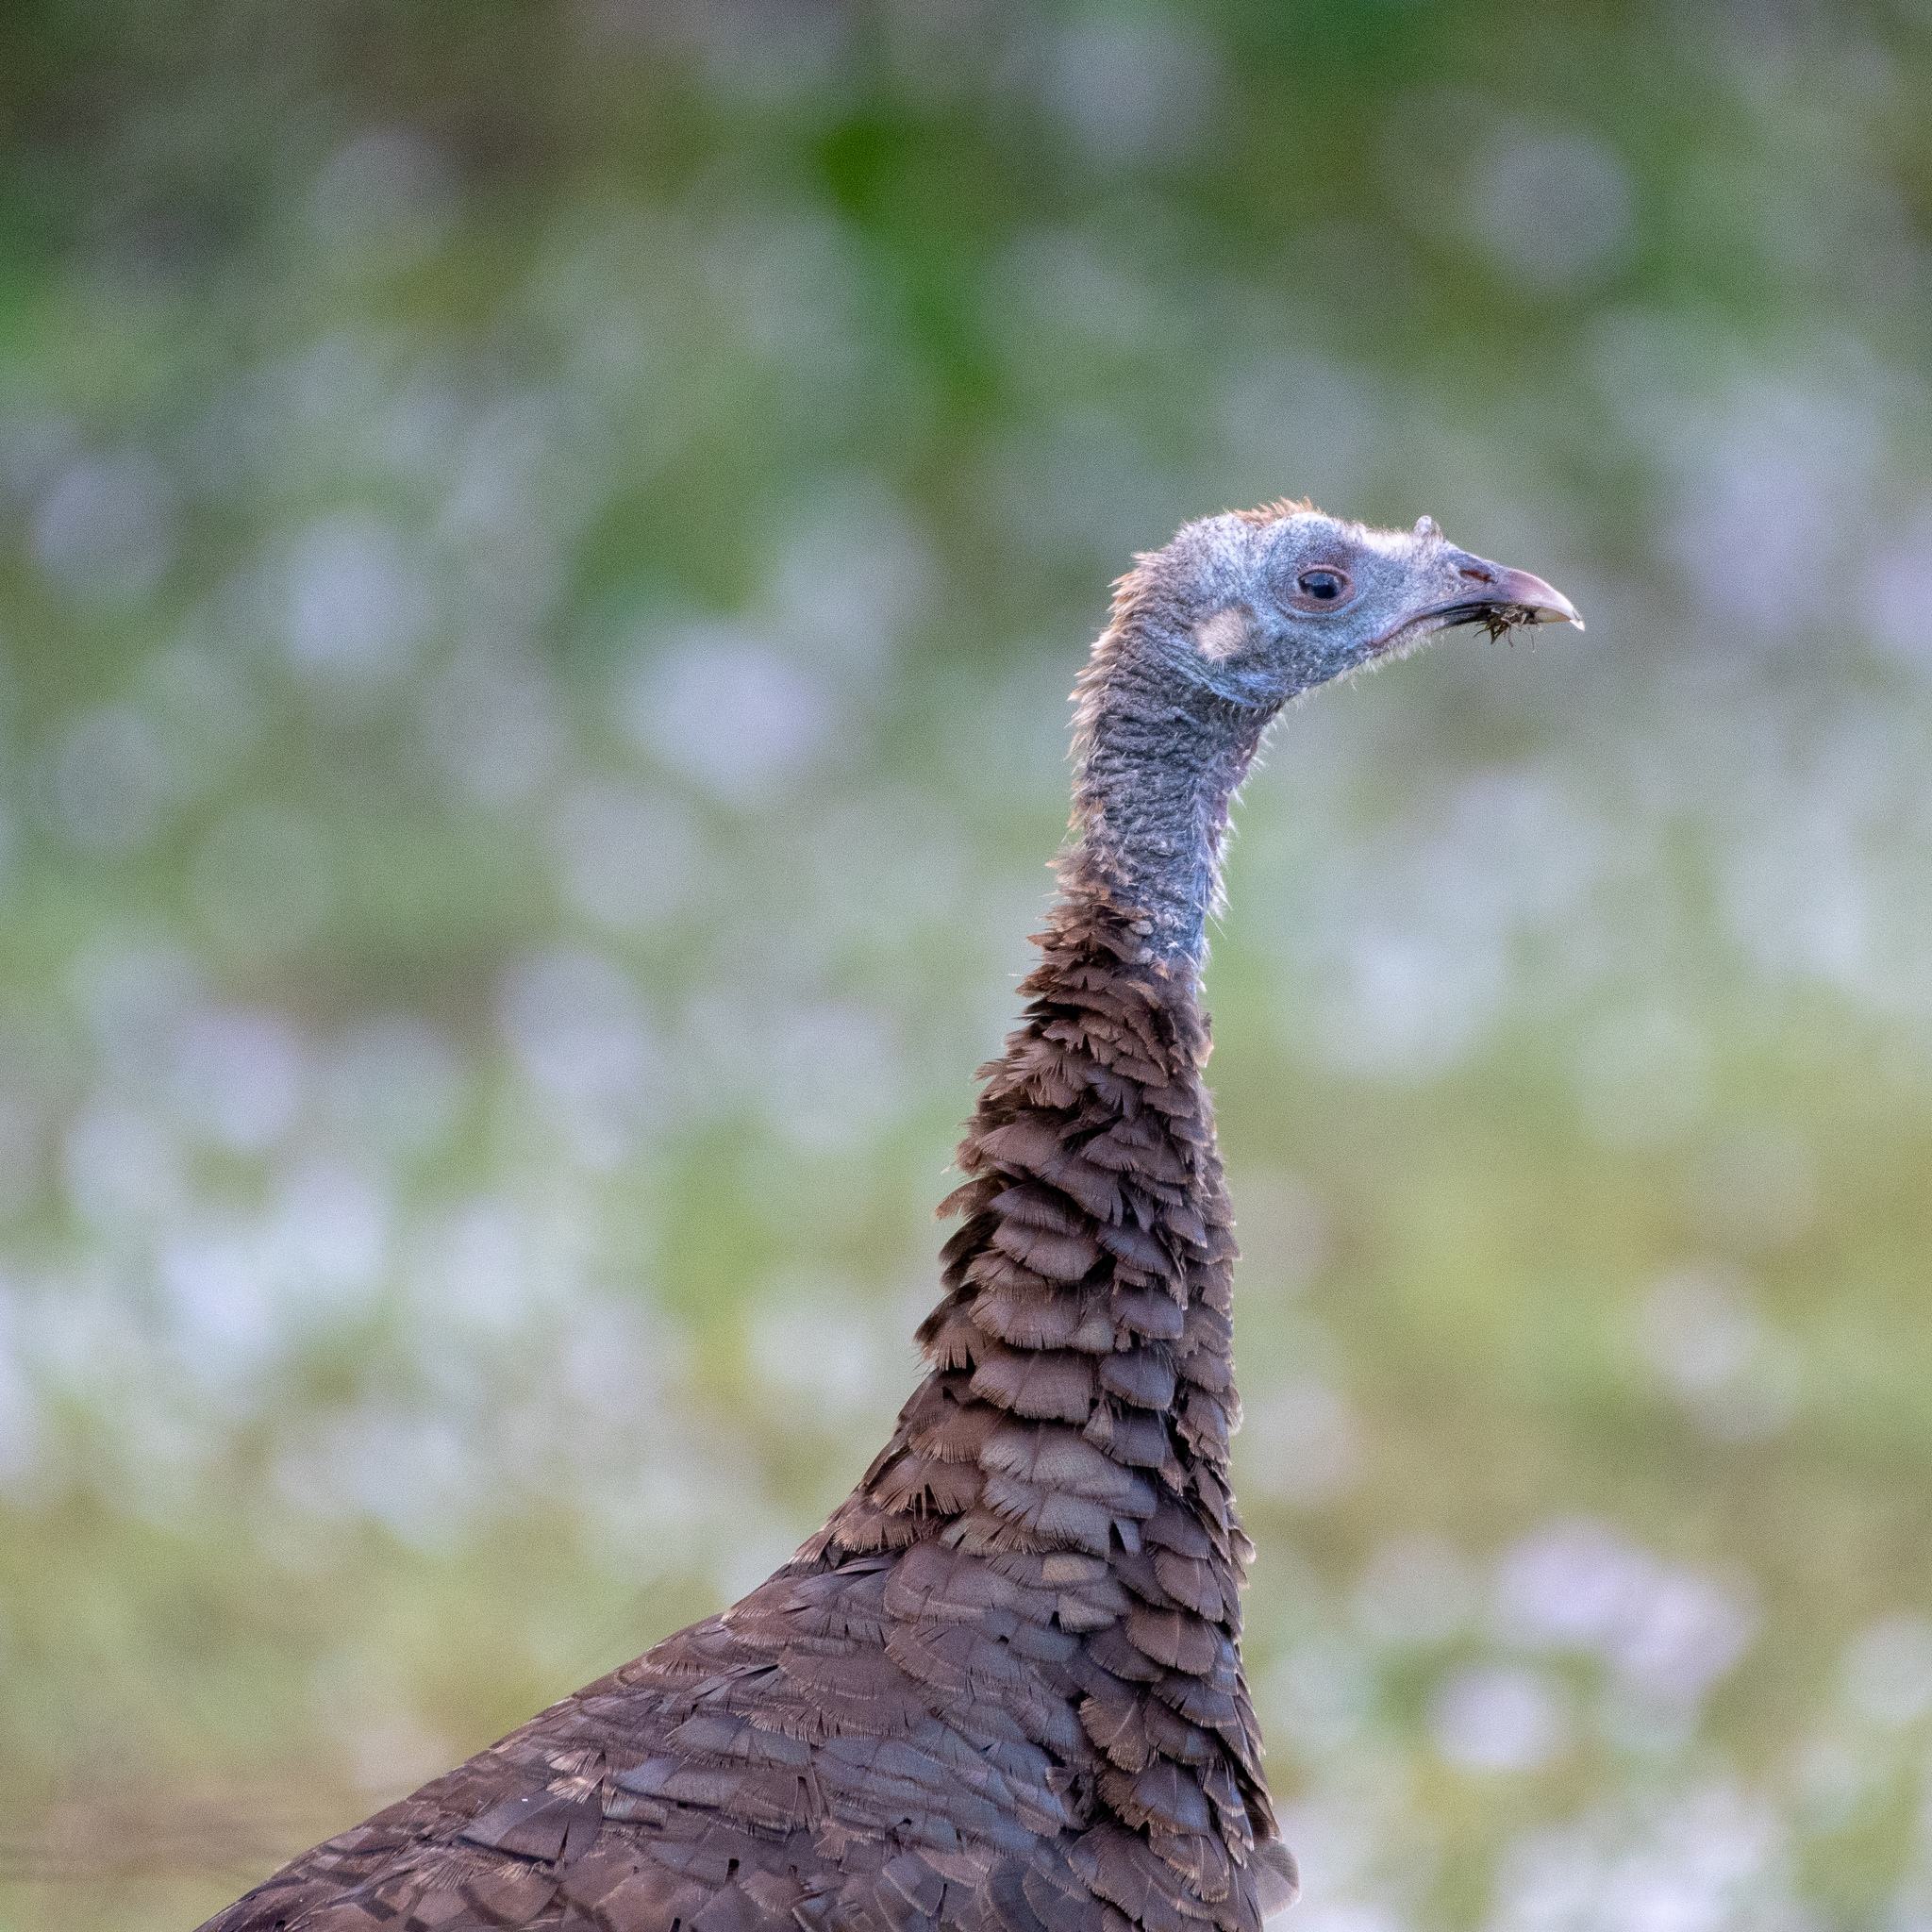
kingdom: Animalia
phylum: Chordata
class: Aves
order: Galliformes
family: Phasianidae
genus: Meleagris
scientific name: Meleagris gallopavo
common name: Wild turkey
